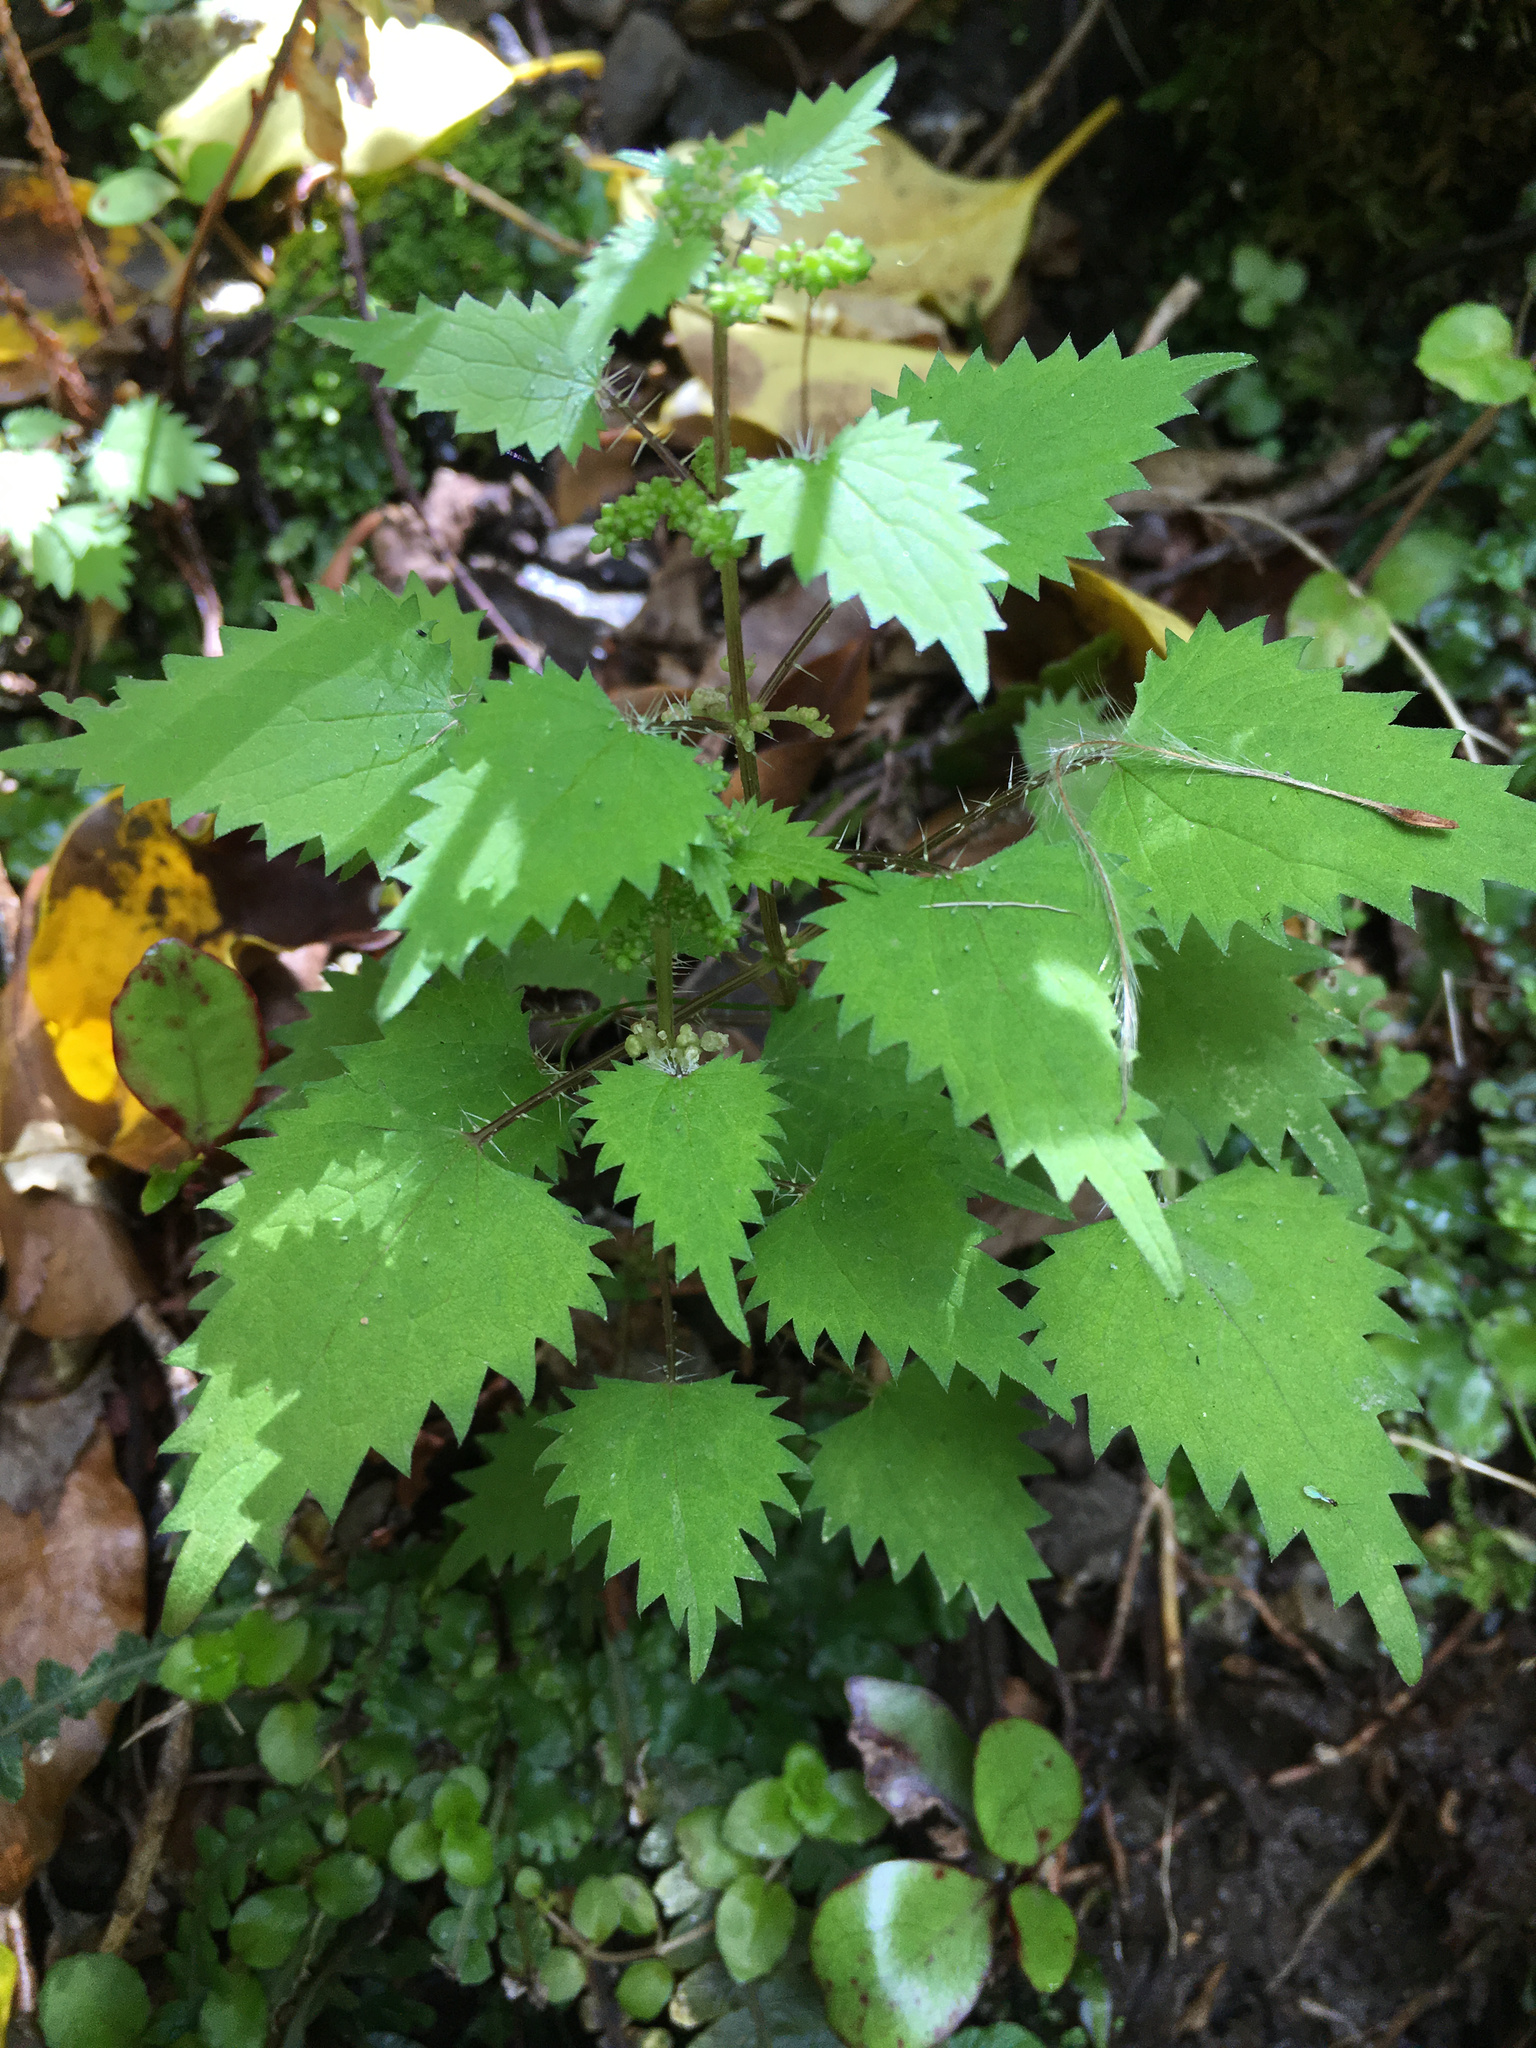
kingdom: Plantae
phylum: Tracheophyta
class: Magnoliopsida
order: Rosales
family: Urticaceae
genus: Urtica
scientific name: Urtica sykesii
